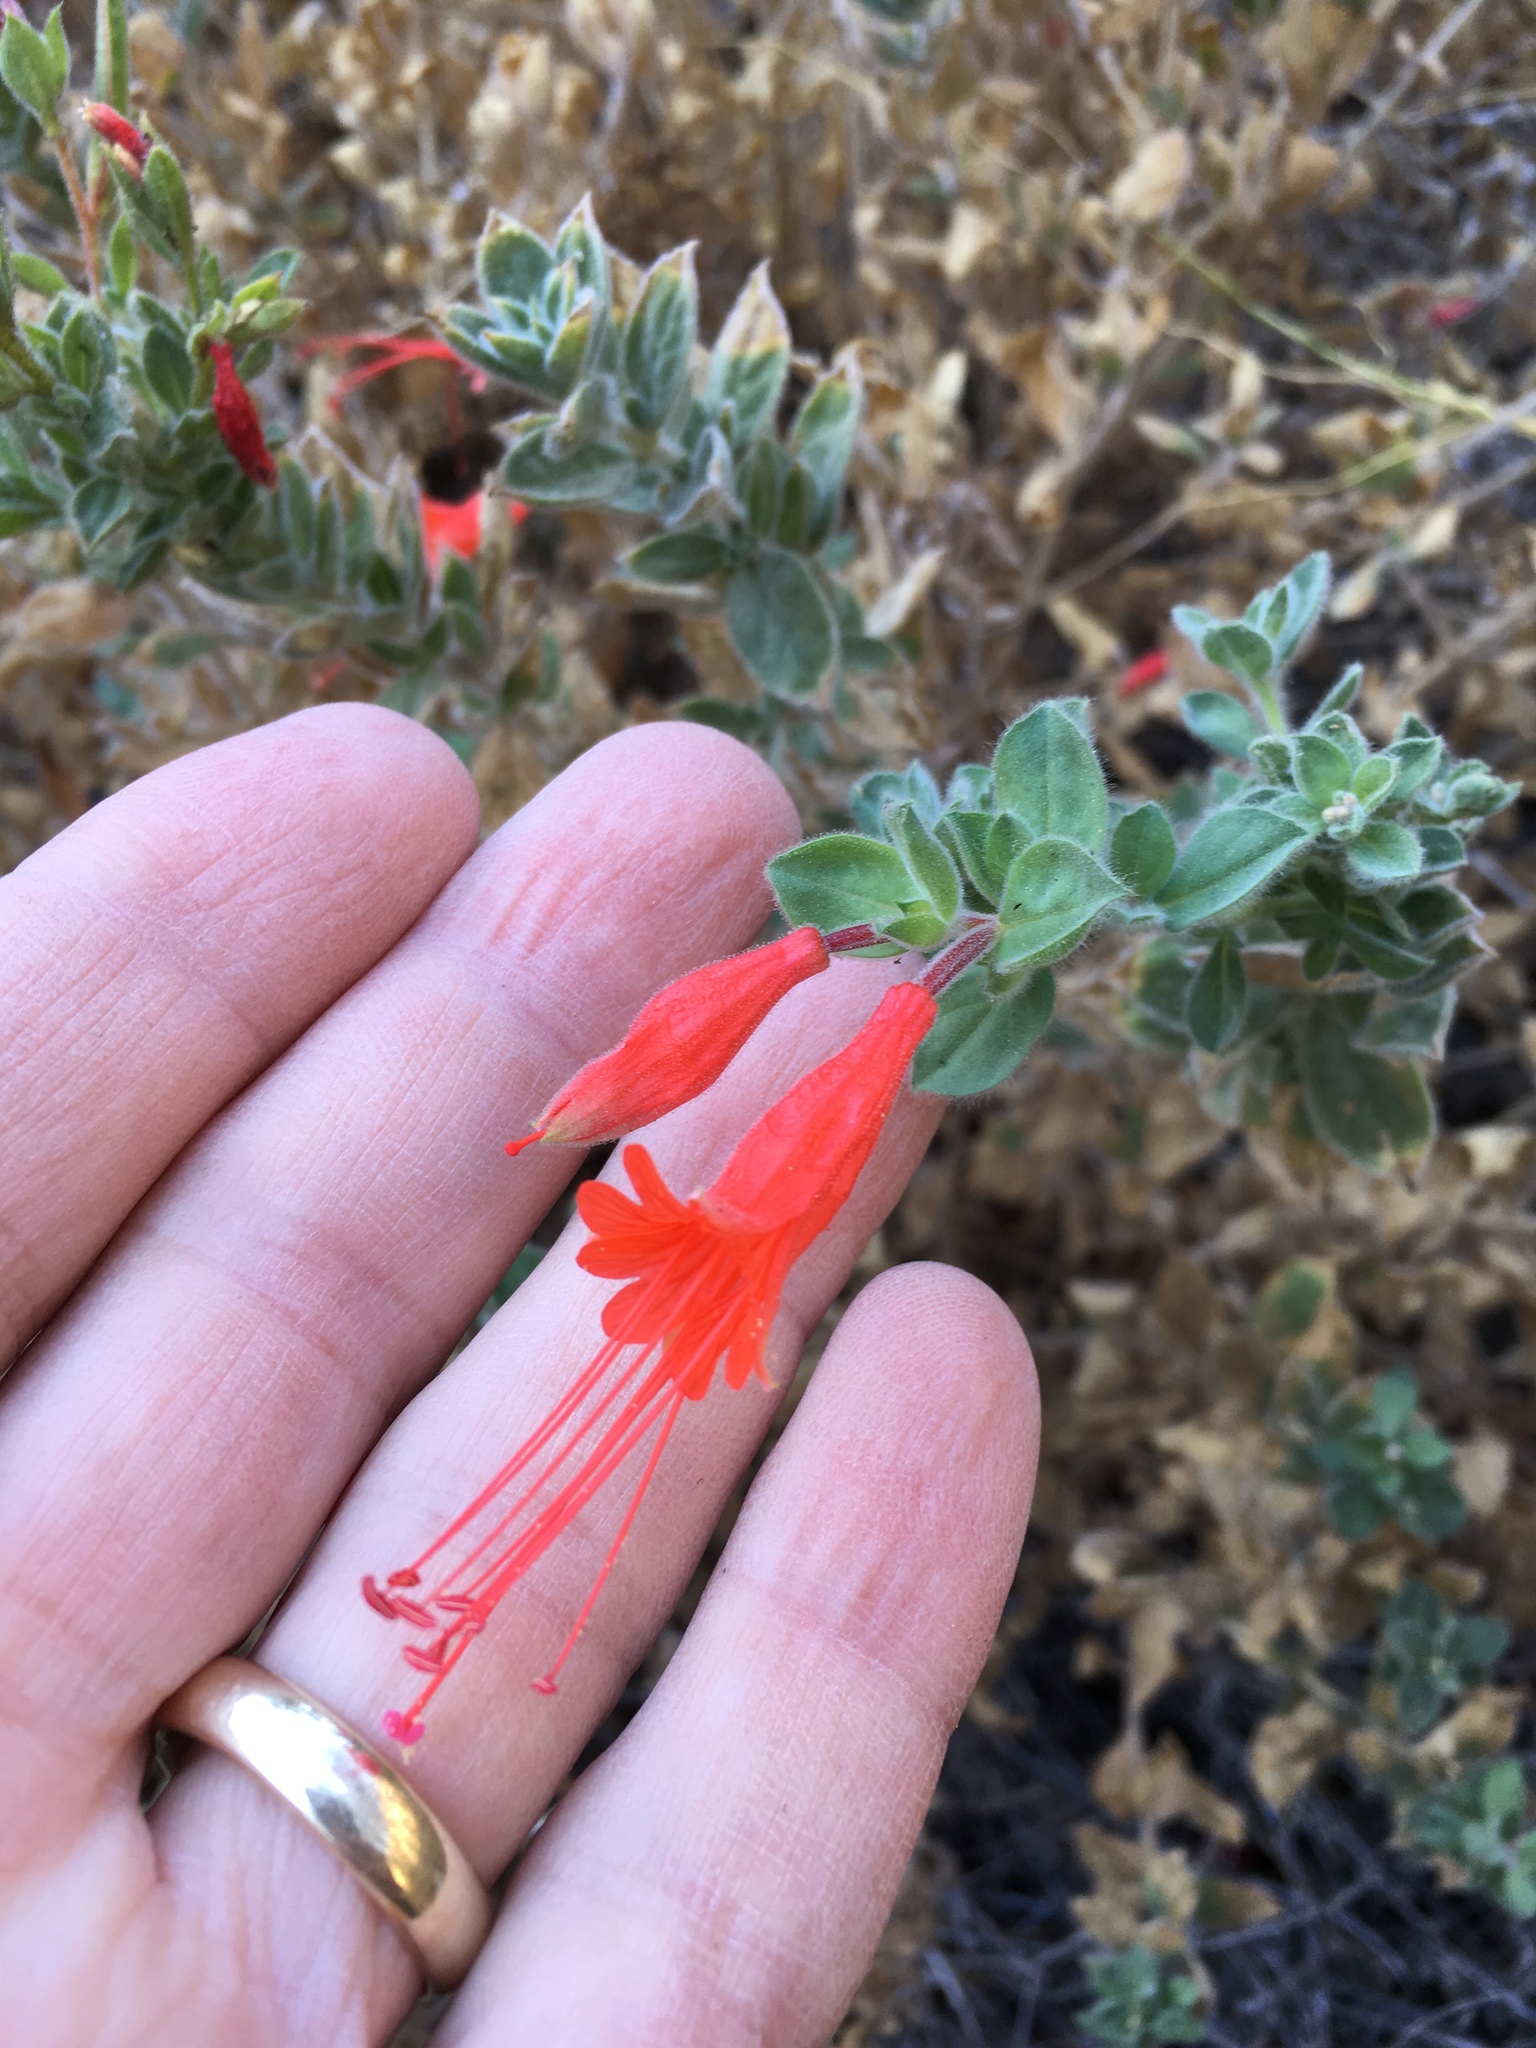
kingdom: Plantae
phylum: Tracheophyta
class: Magnoliopsida
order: Myrtales
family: Onagraceae
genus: Epilobium
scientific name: Epilobium canum
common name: California-fuchsia
